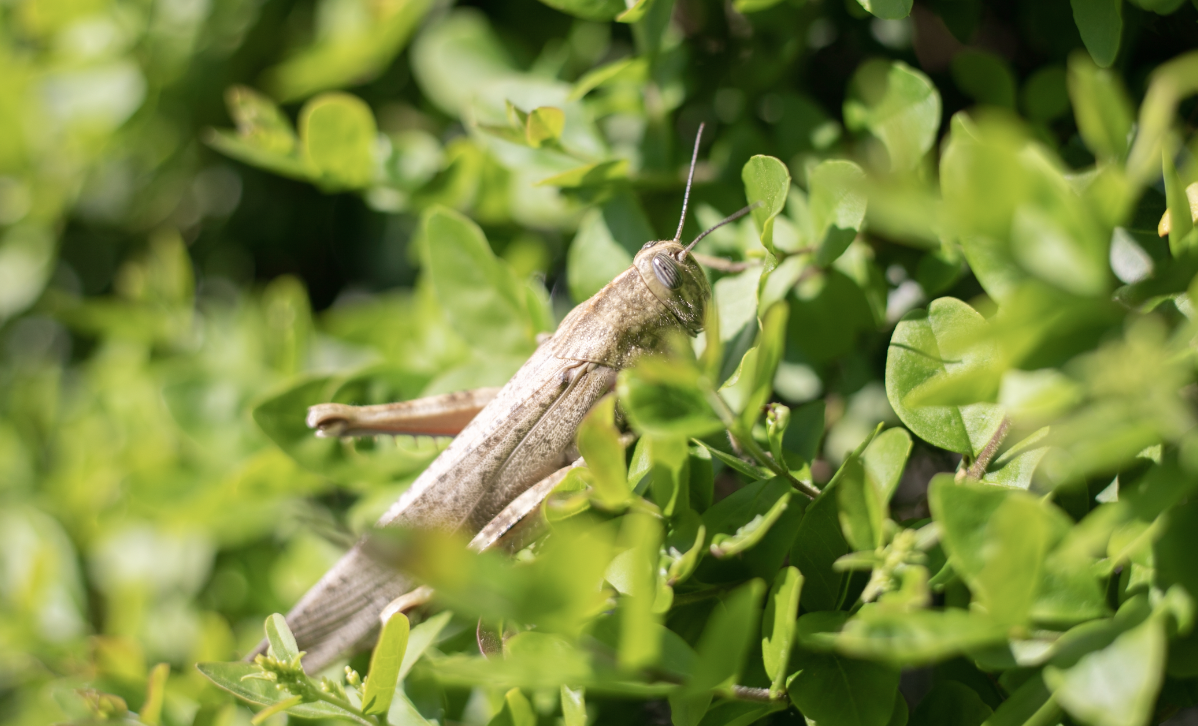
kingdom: Animalia
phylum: Arthropoda
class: Insecta
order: Orthoptera
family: Acrididae
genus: Anacridium
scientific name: Anacridium aegyptium
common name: Egyptian grasshopper
